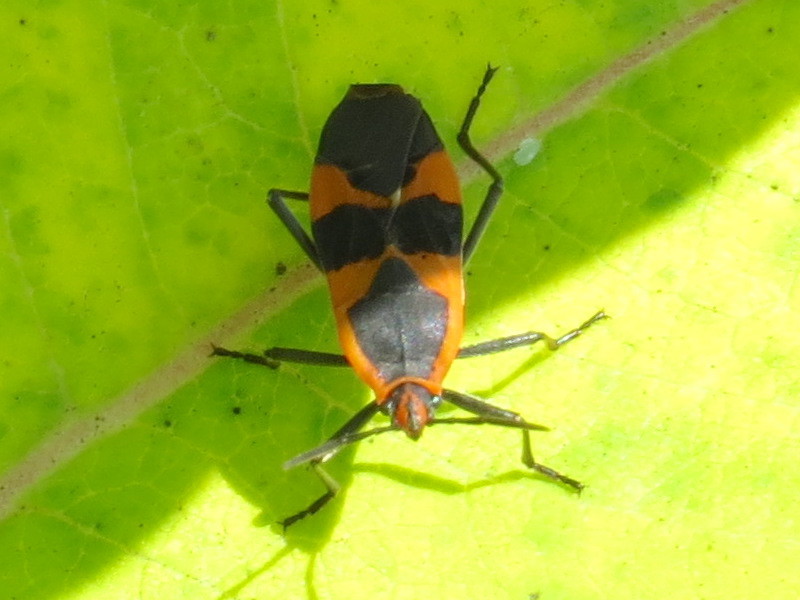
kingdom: Animalia
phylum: Arthropoda
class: Insecta
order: Hemiptera
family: Lygaeidae
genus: Oncopeltus
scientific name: Oncopeltus fasciatus
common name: Large milkweed bug
